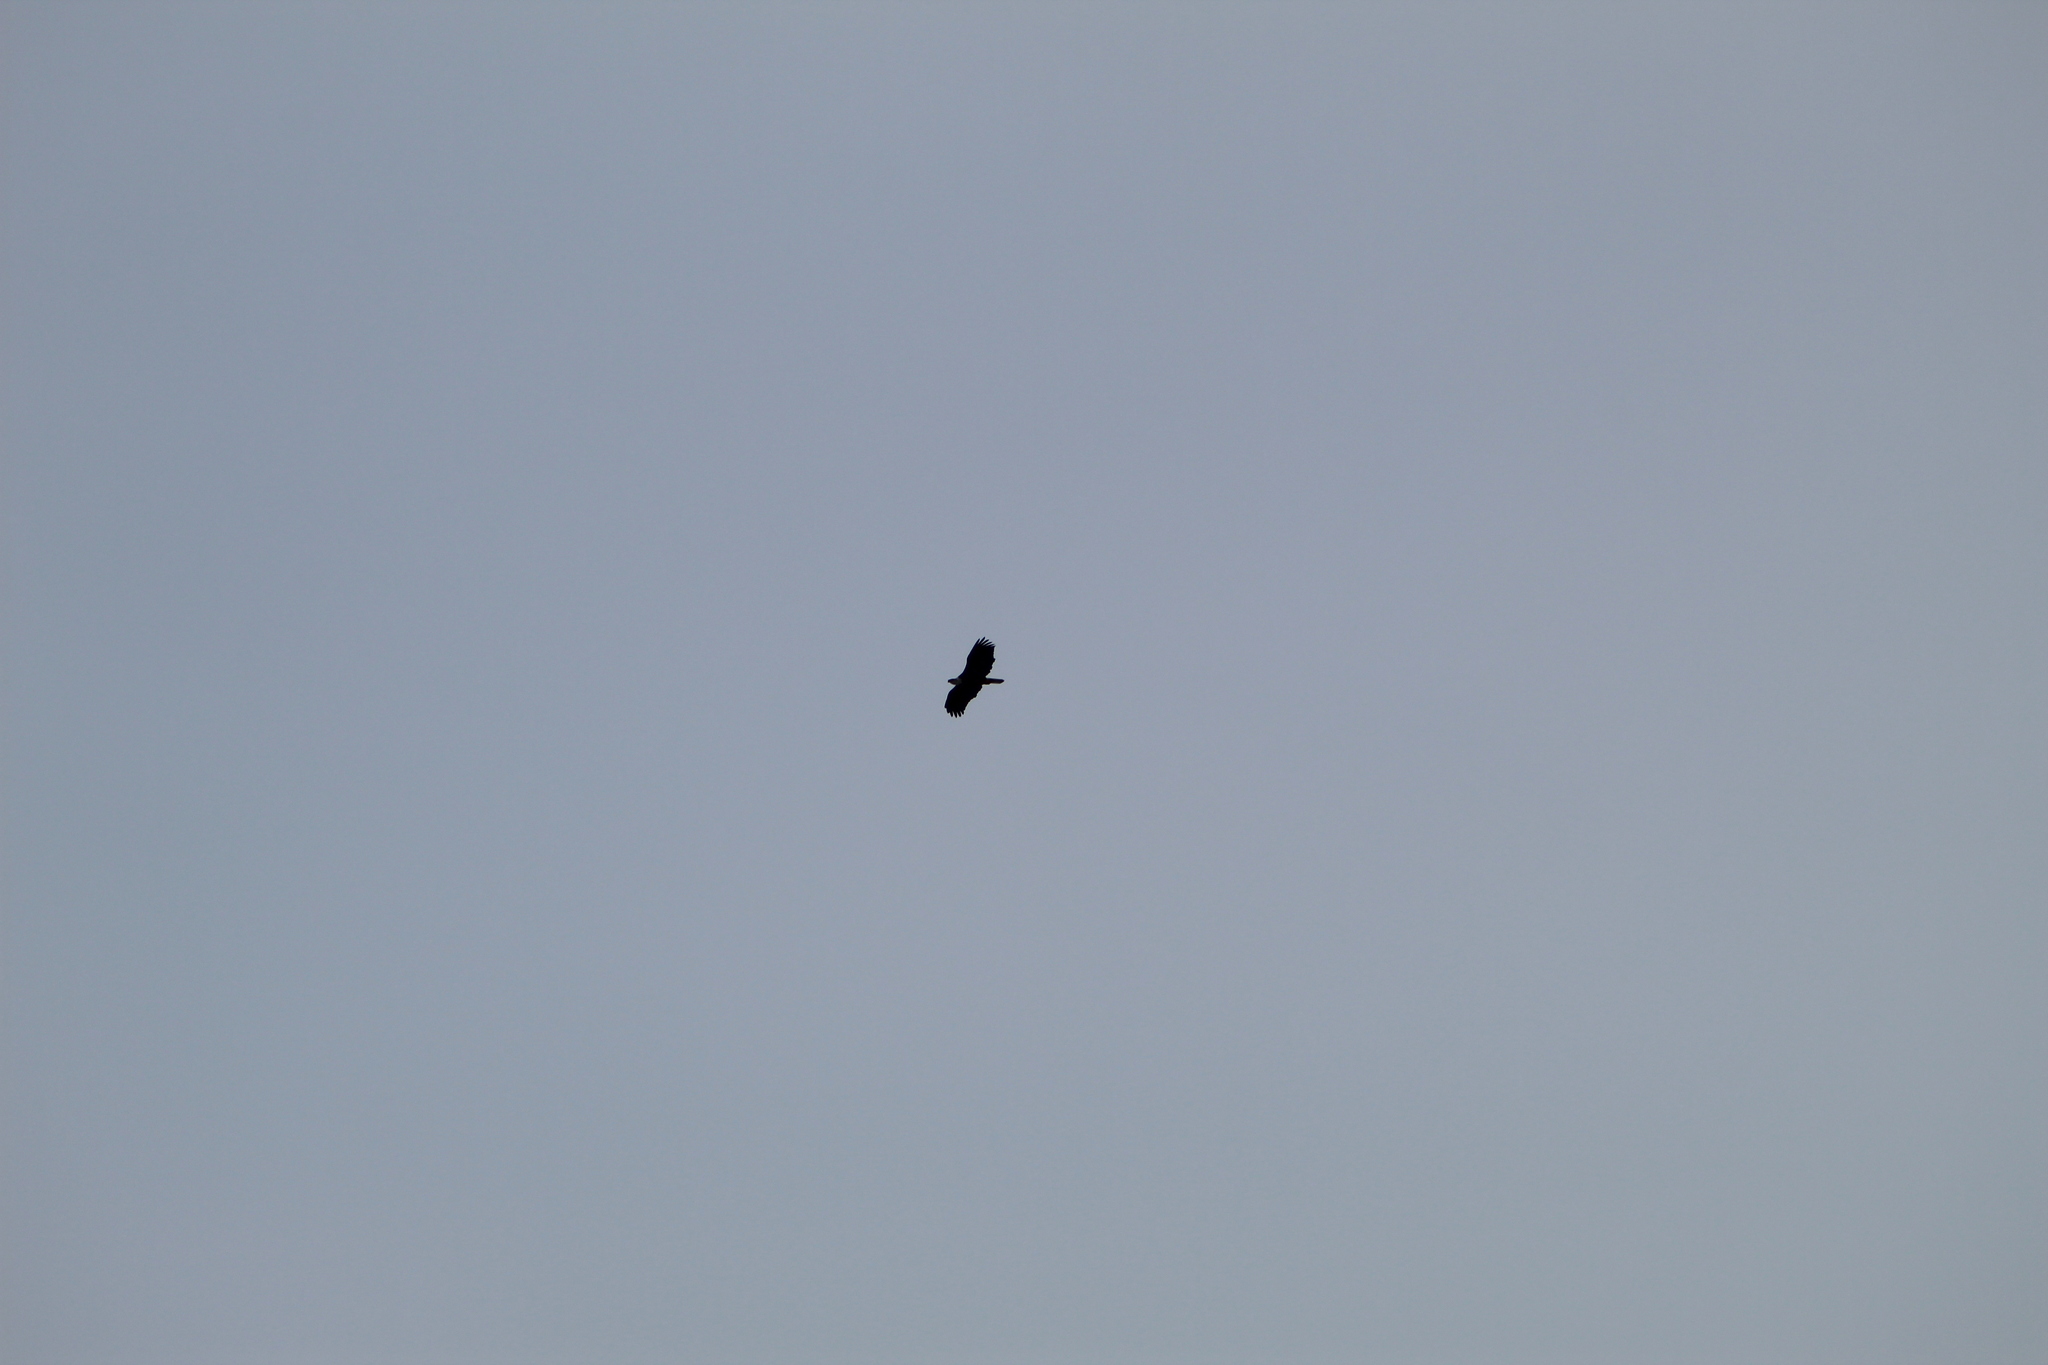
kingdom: Animalia
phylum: Chordata
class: Aves
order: Accipitriformes
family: Accipitridae
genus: Haliaeetus
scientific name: Haliaeetus leucocephalus
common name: Bald eagle
